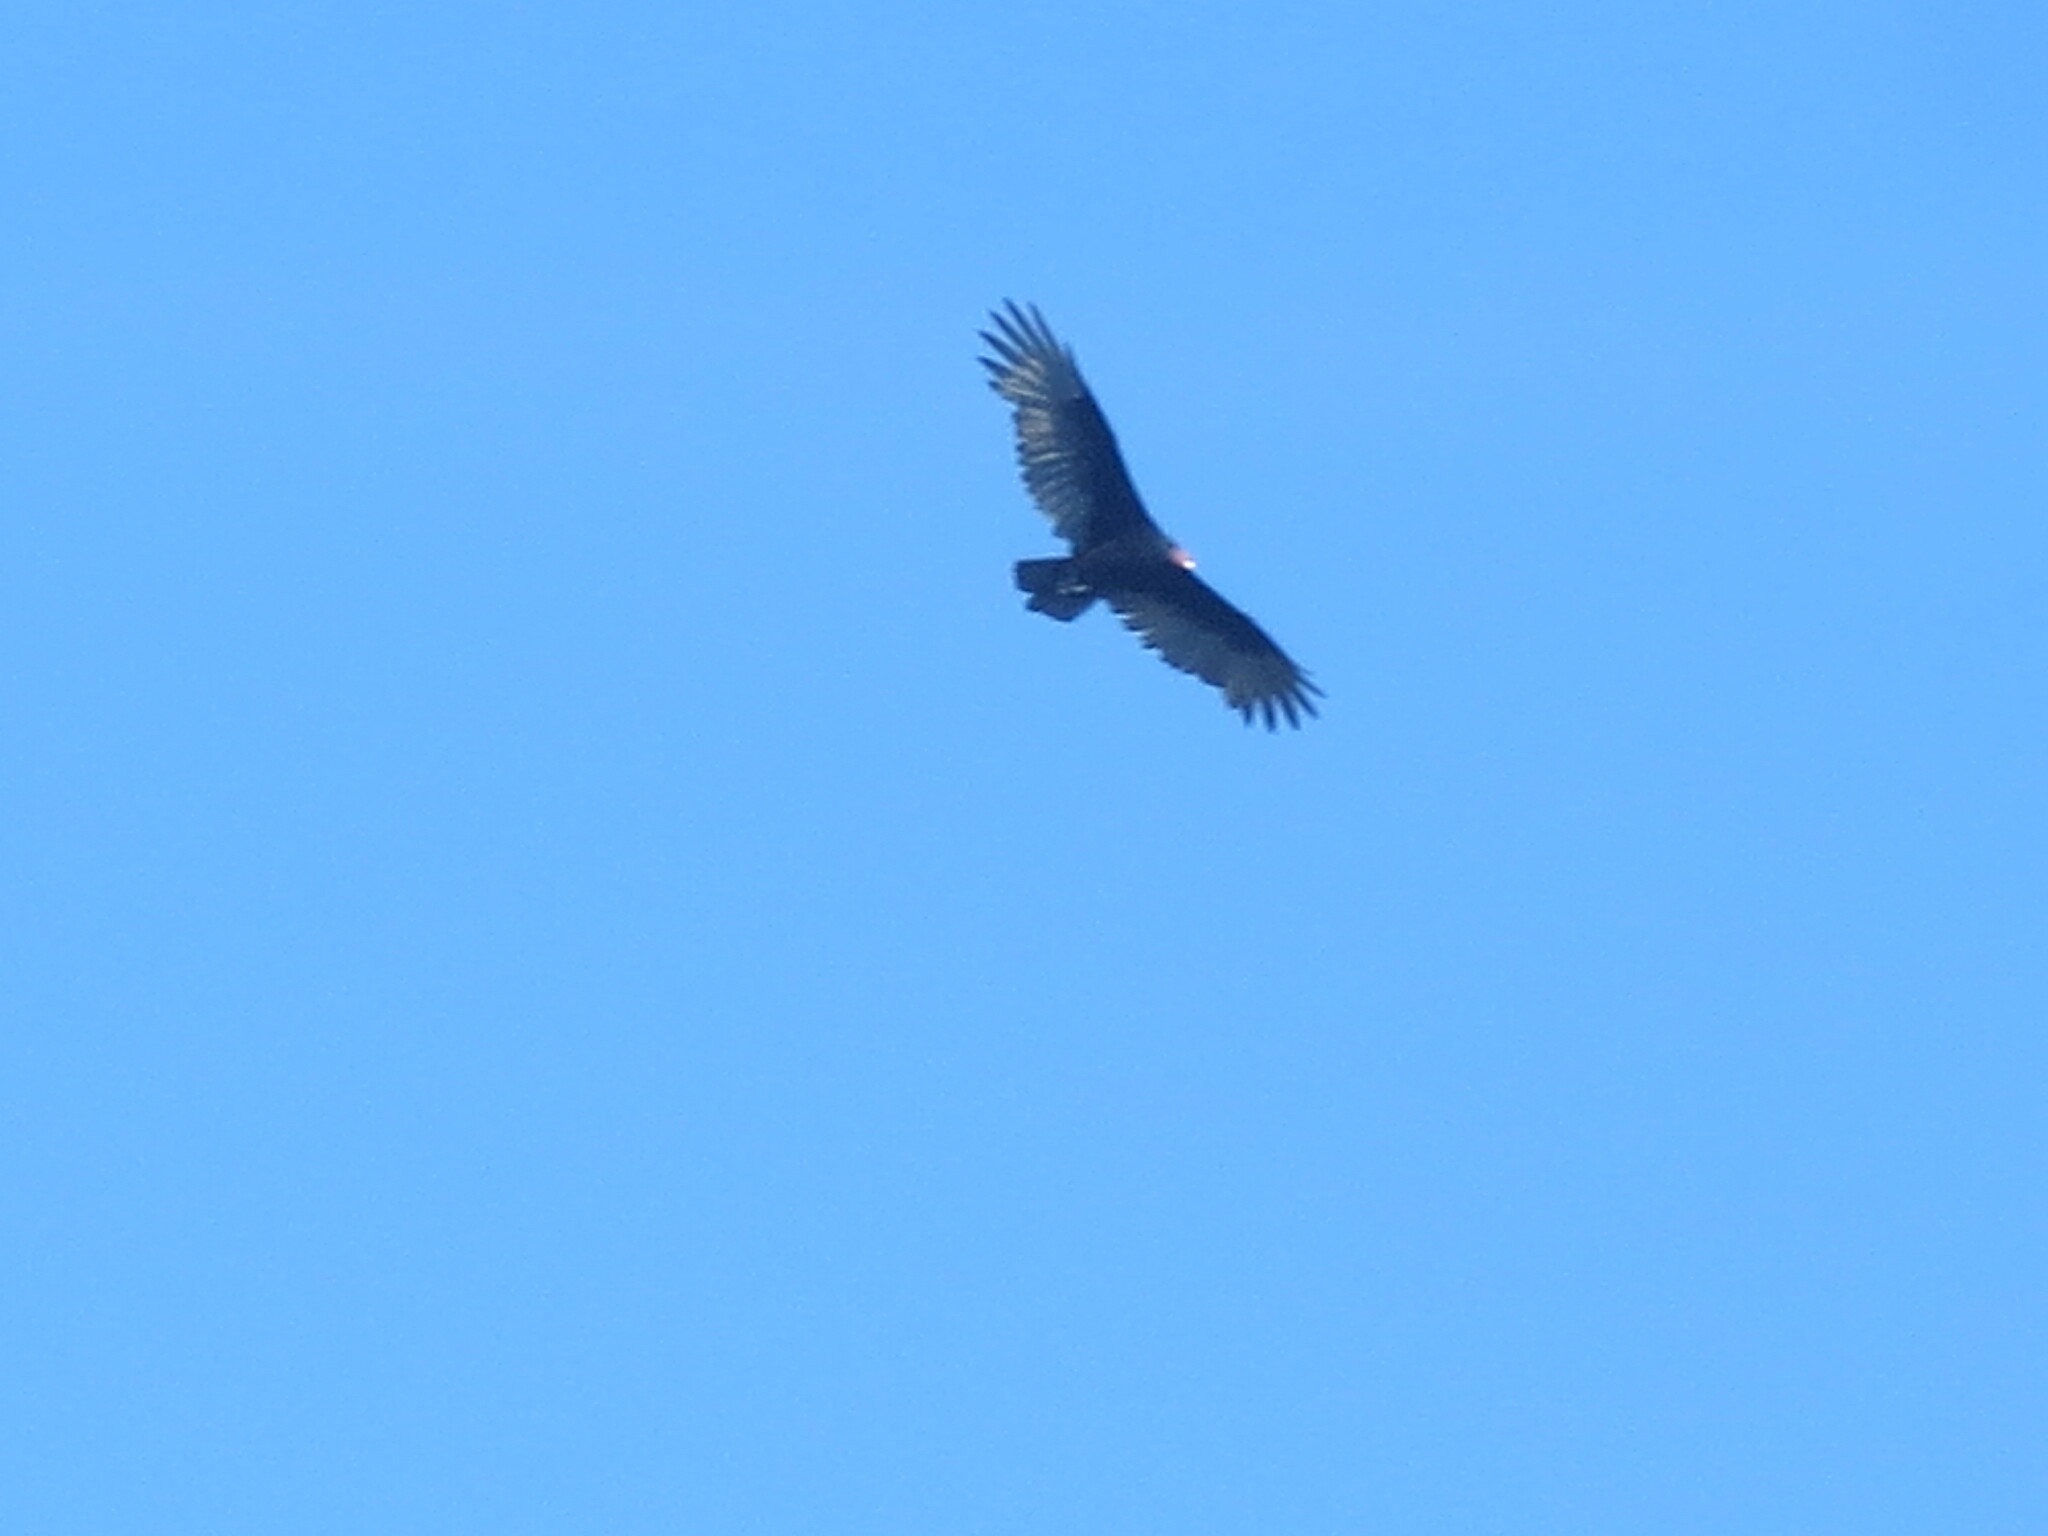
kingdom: Animalia
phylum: Chordata
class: Aves
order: Accipitriformes
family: Cathartidae
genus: Cathartes
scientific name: Cathartes aura
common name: Turkey vulture
